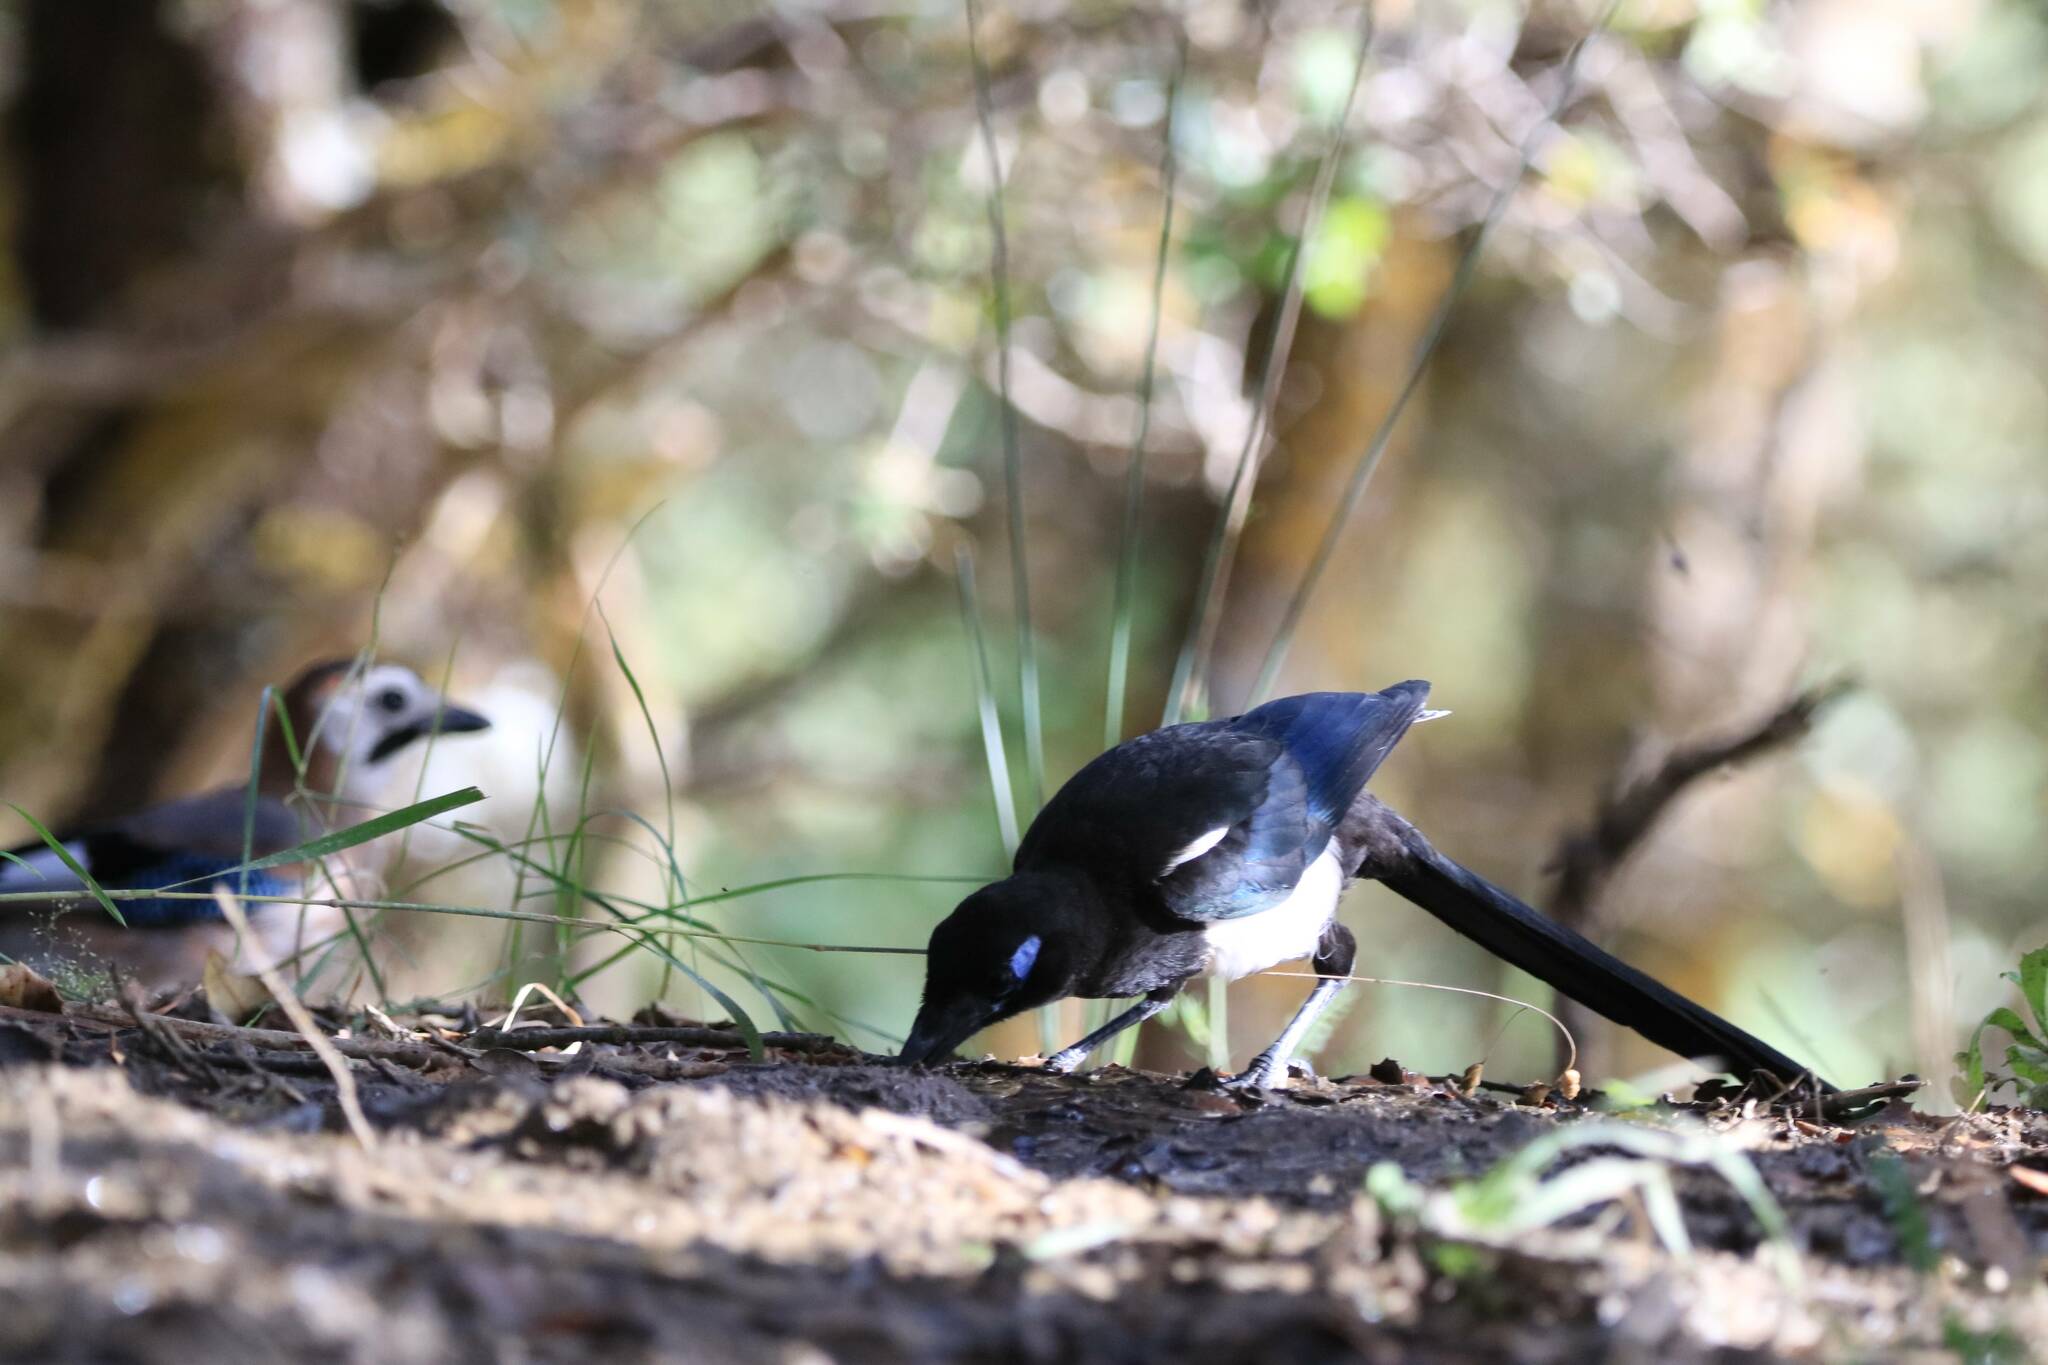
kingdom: Animalia
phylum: Chordata
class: Aves
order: Passeriformes
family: Corvidae
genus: Pica
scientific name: Pica mauritanica
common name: Maghreb magpie
